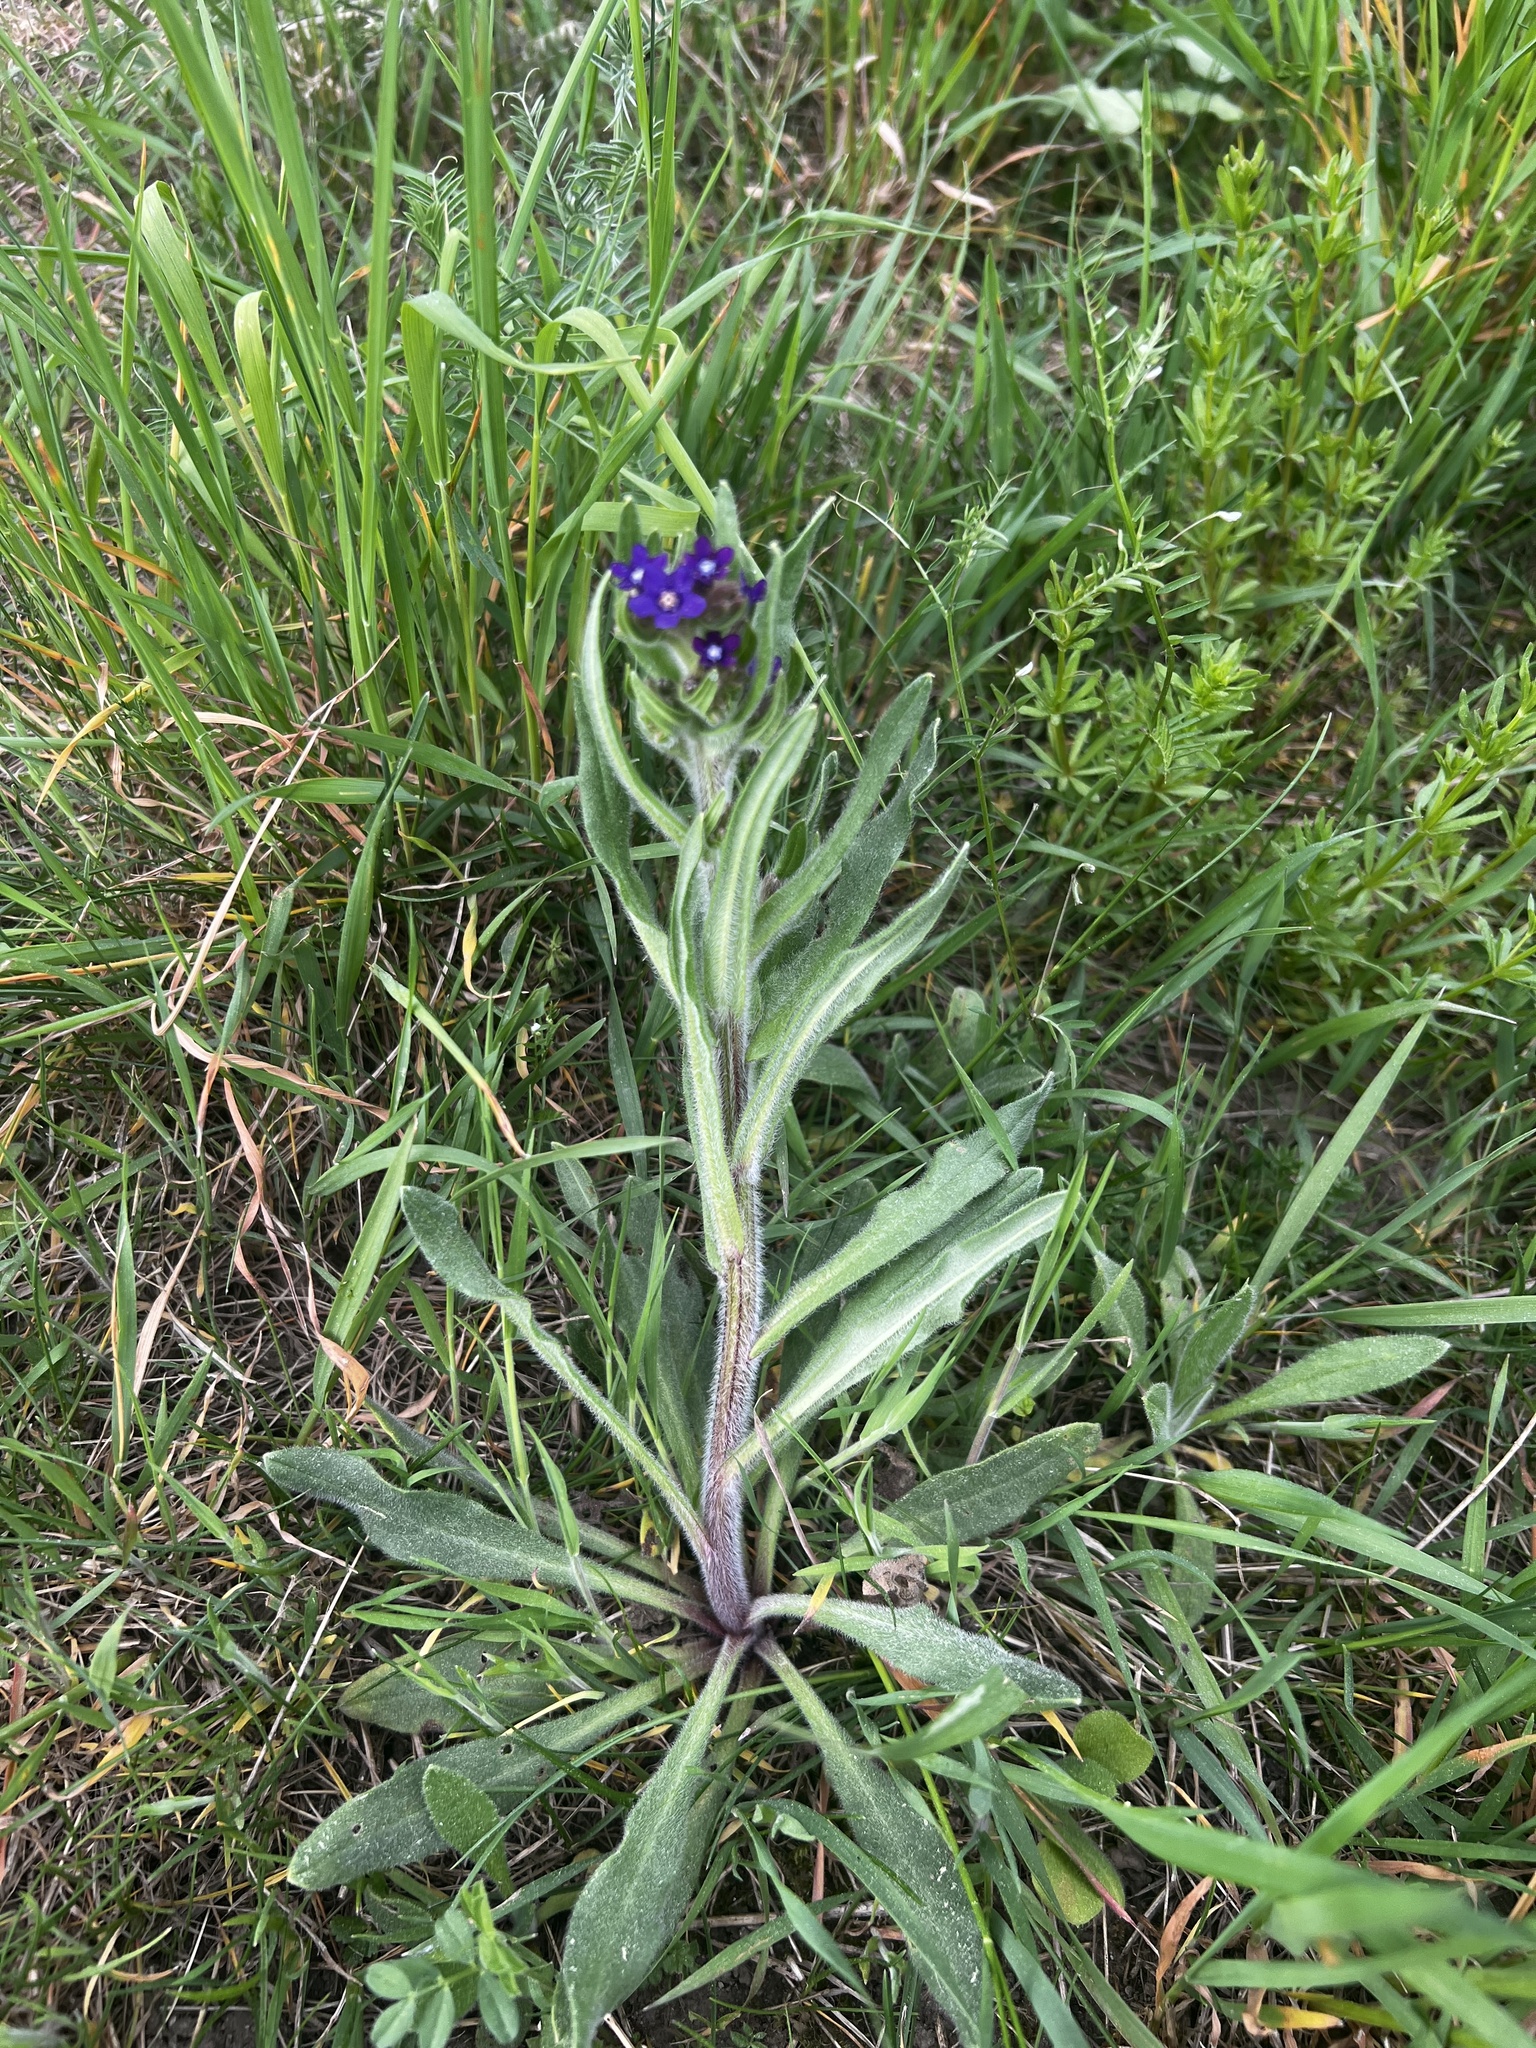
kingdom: Plantae
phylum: Tracheophyta
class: Magnoliopsida
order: Boraginales
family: Boraginaceae
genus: Anchusa
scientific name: Anchusa officinalis
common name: Alkanet
